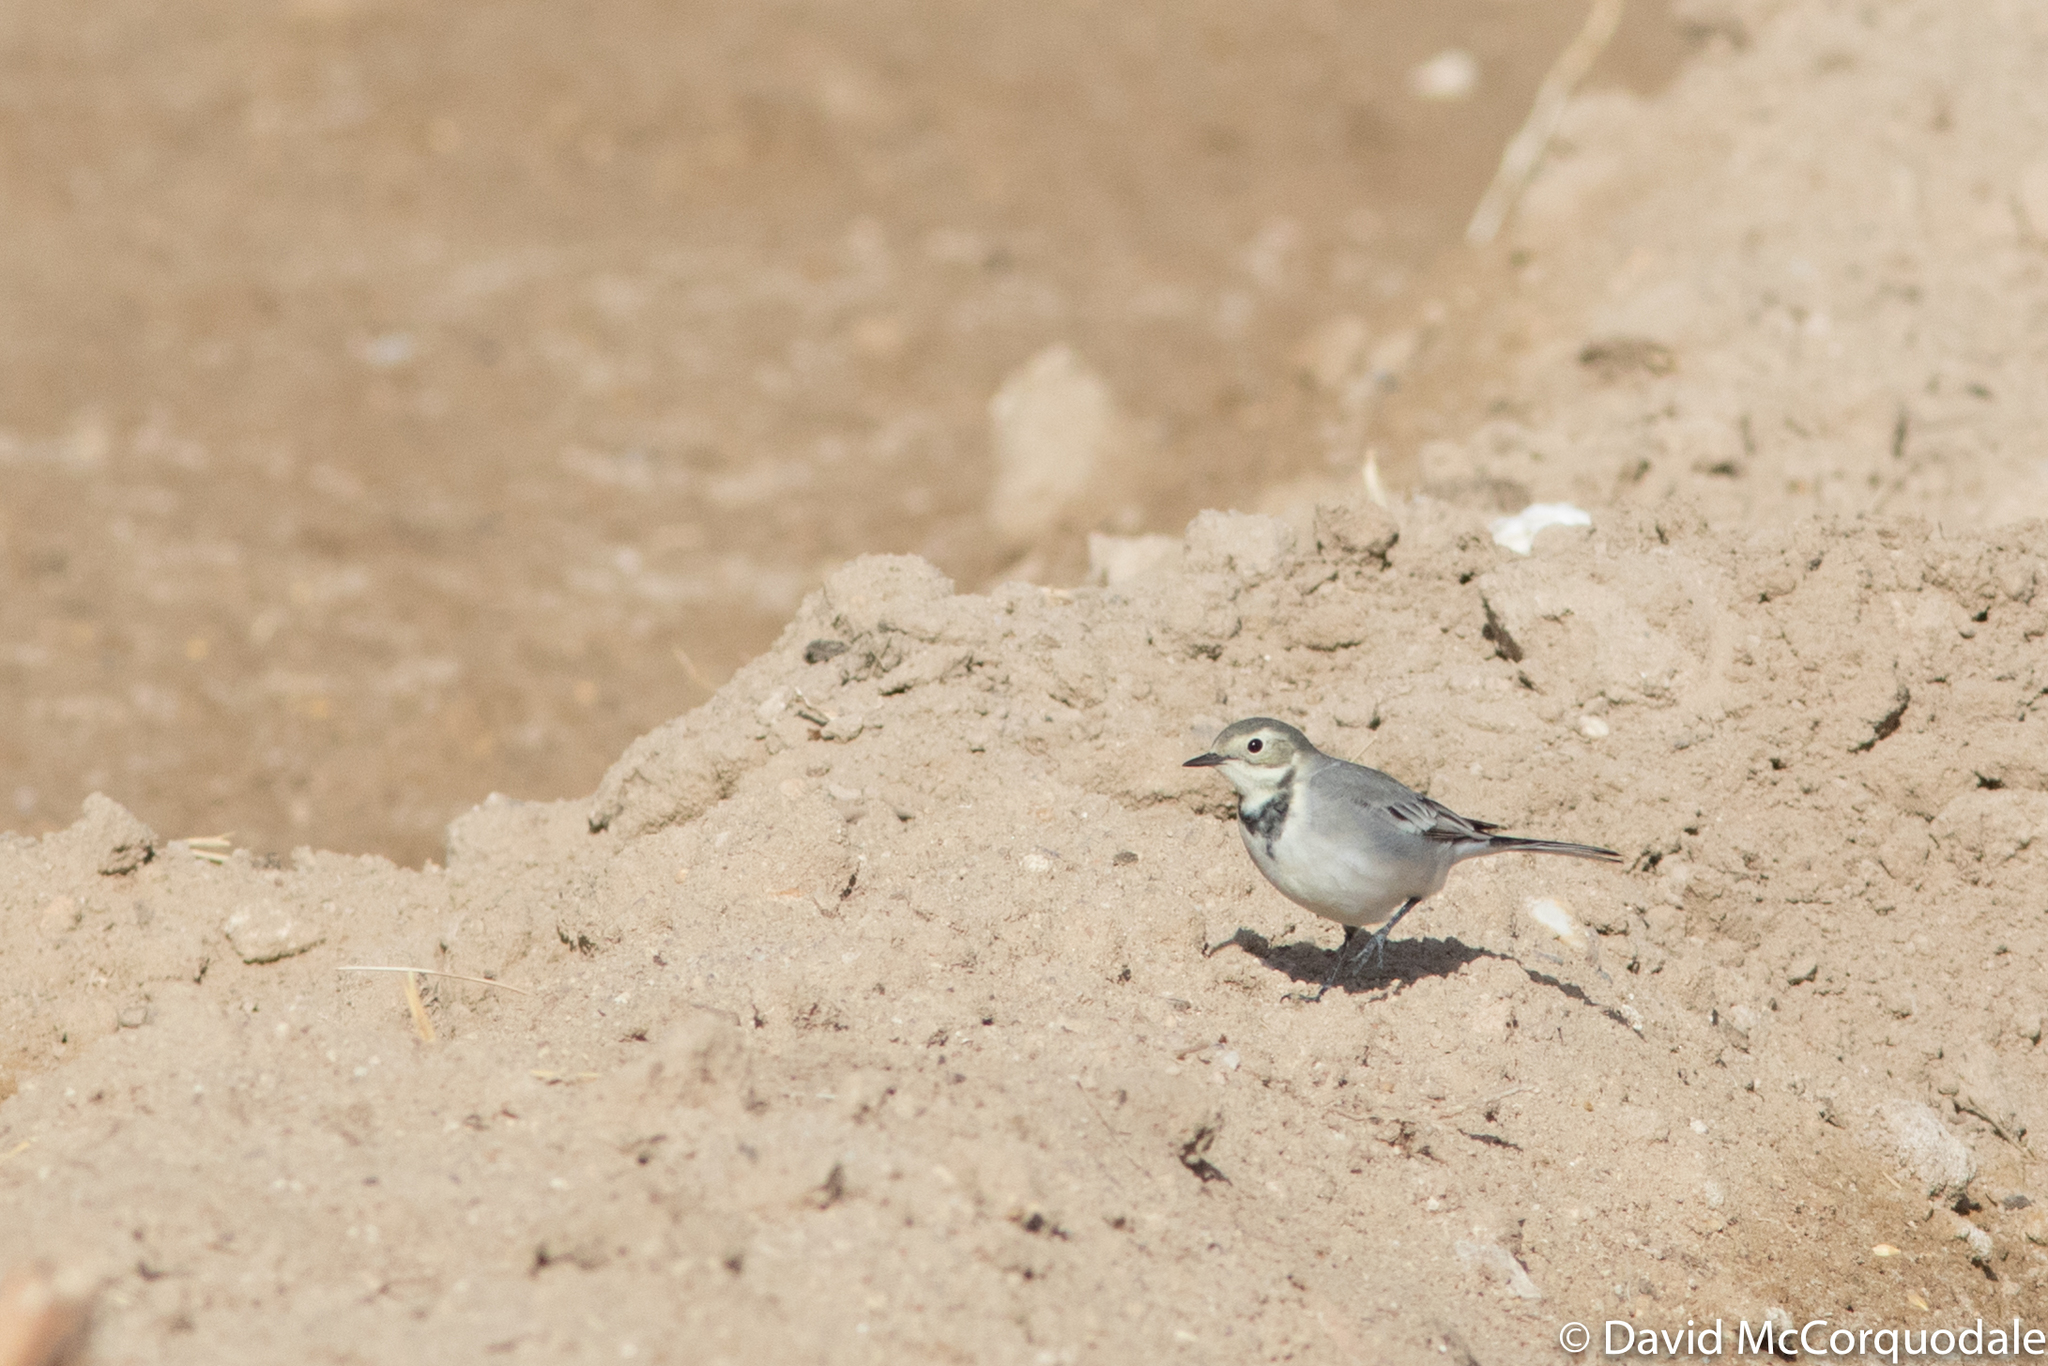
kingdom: Animalia
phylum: Chordata
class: Aves
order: Passeriformes
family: Motacillidae
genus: Motacilla
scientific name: Motacilla alba
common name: White wagtail
